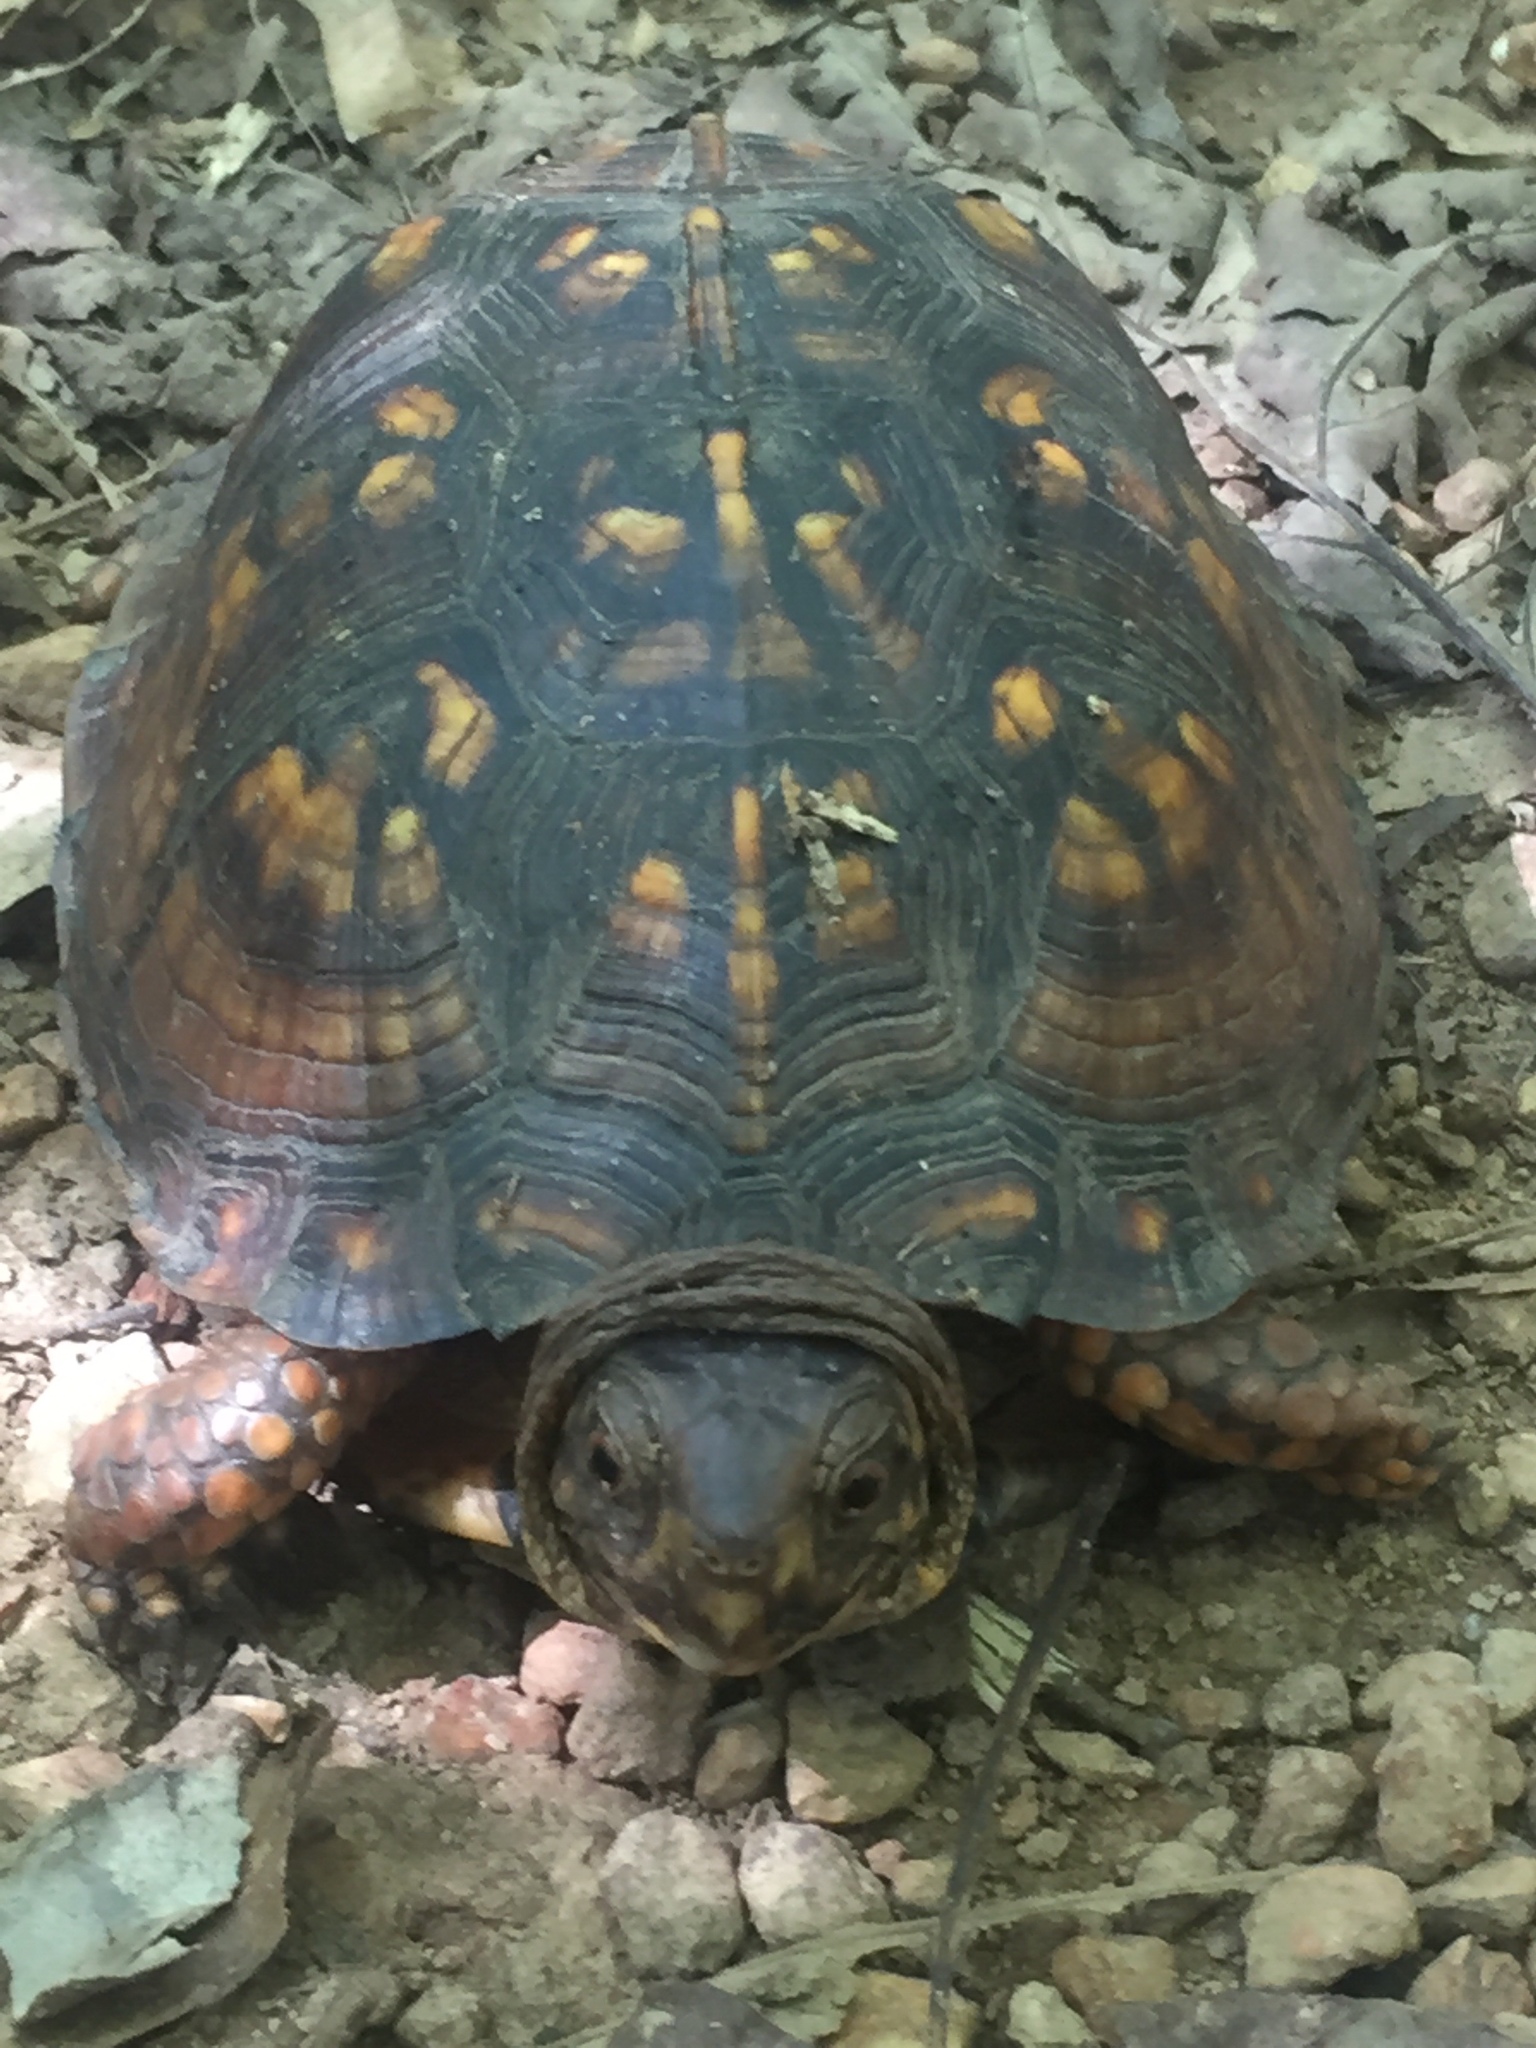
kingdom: Animalia
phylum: Chordata
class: Testudines
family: Emydidae
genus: Terrapene
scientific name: Terrapene carolina
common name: Common box turtle
